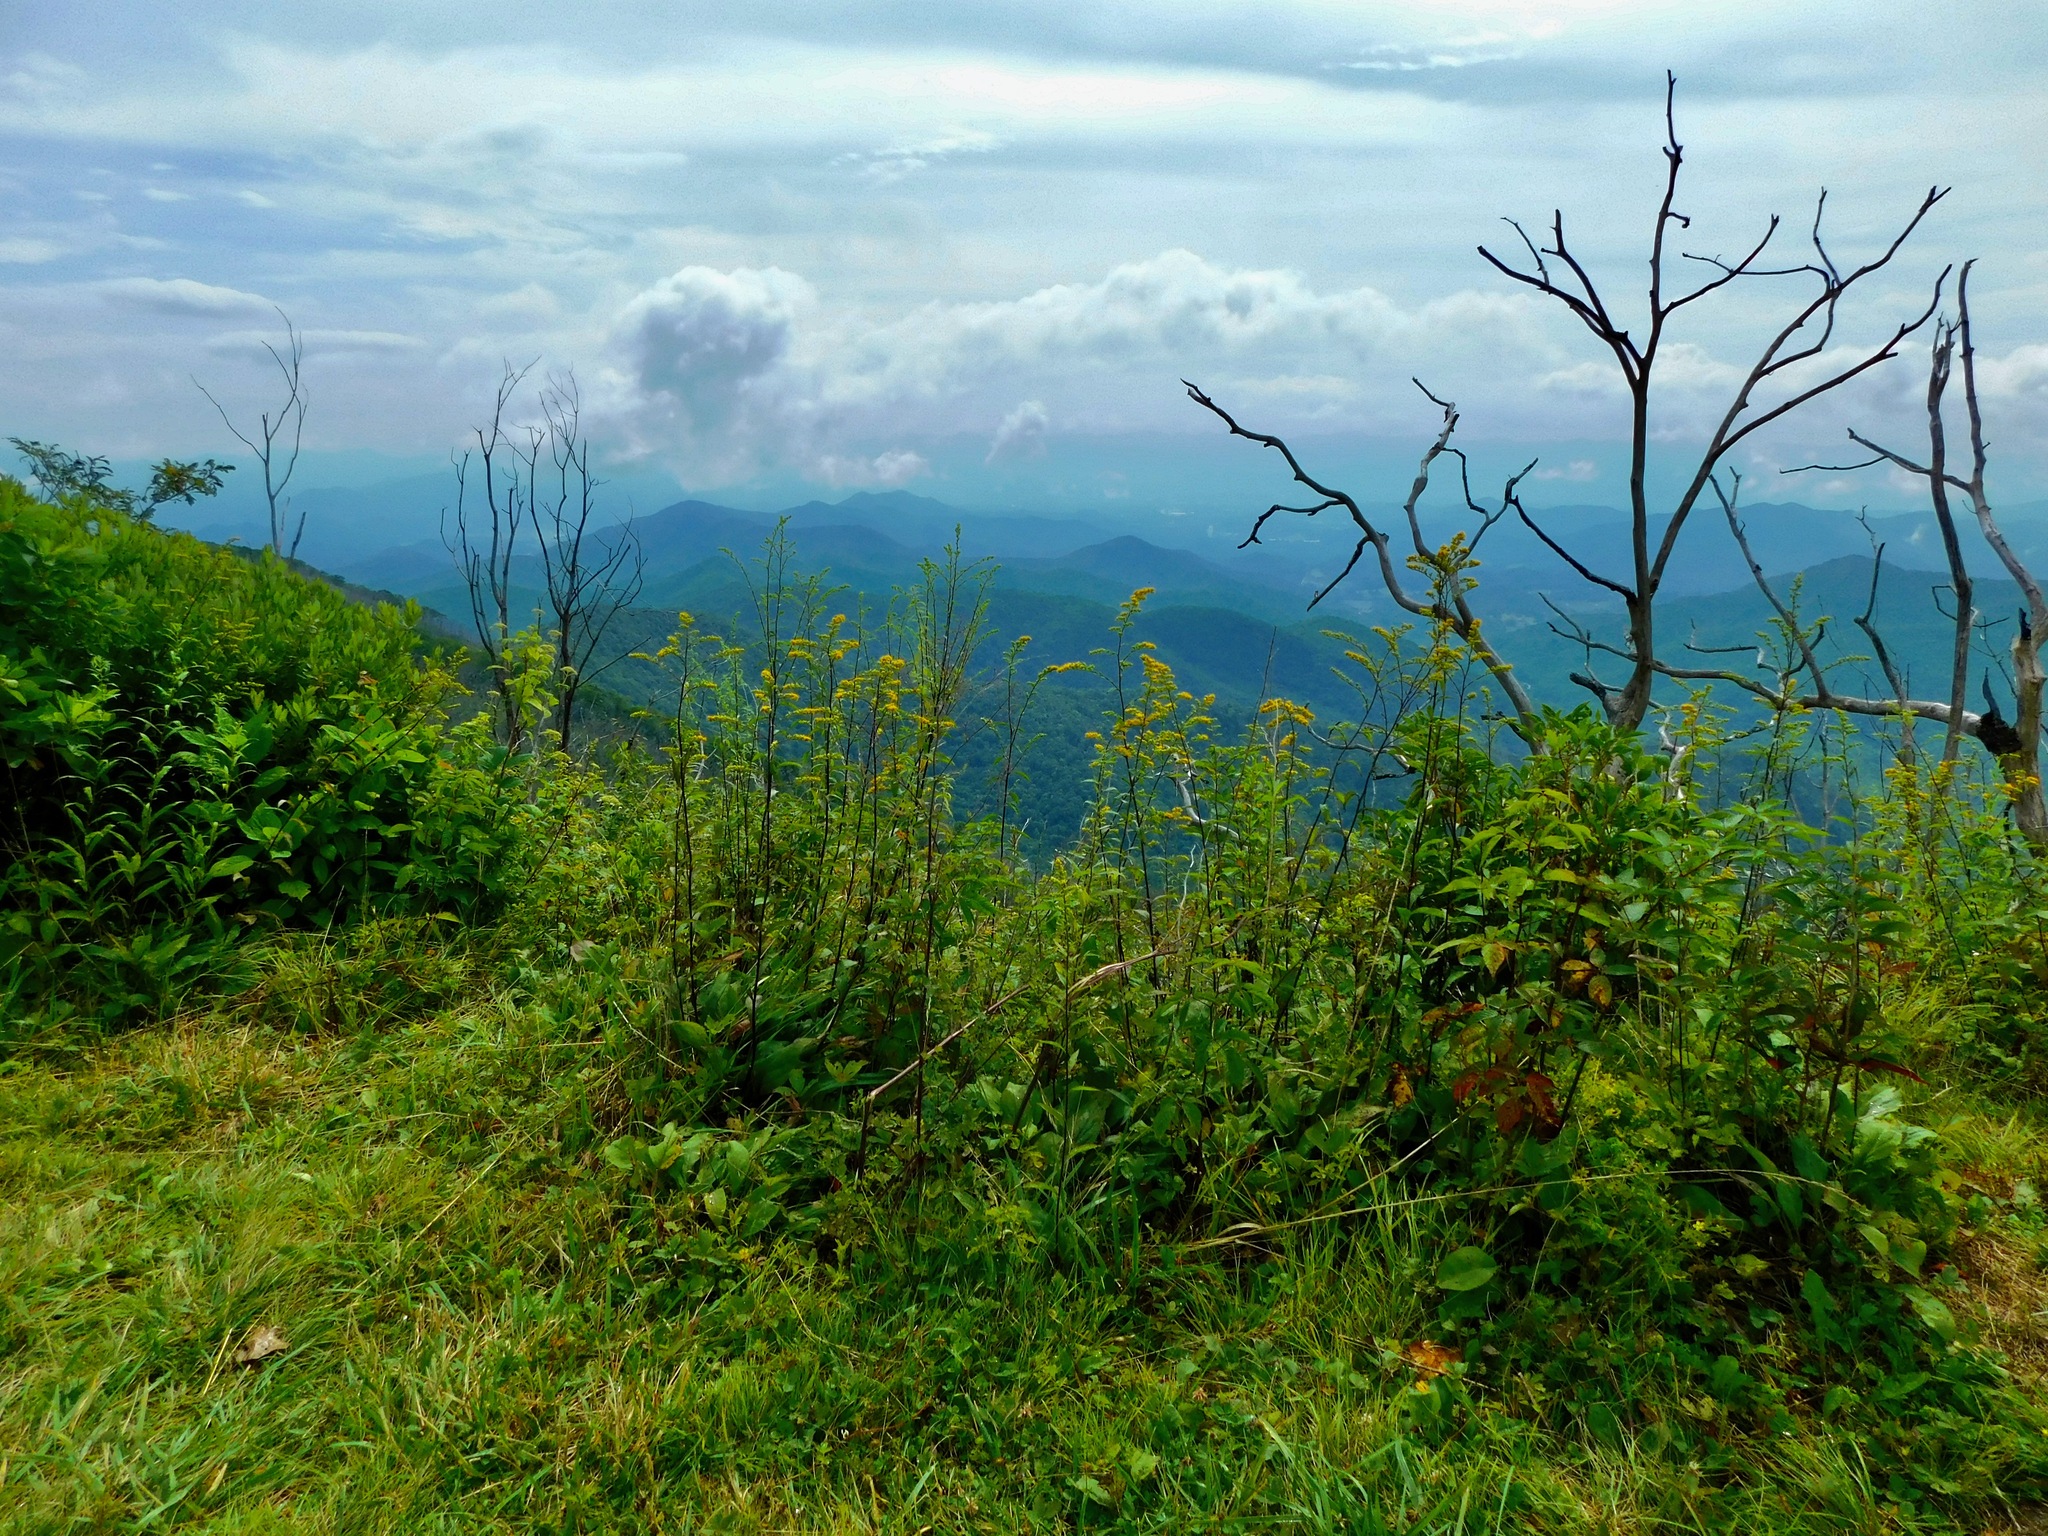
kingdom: Plantae
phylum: Tracheophyta
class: Magnoliopsida
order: Asterales
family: Asteraceae
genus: Solidago
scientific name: Solidago patula
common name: Rough-leaf goldenrod
